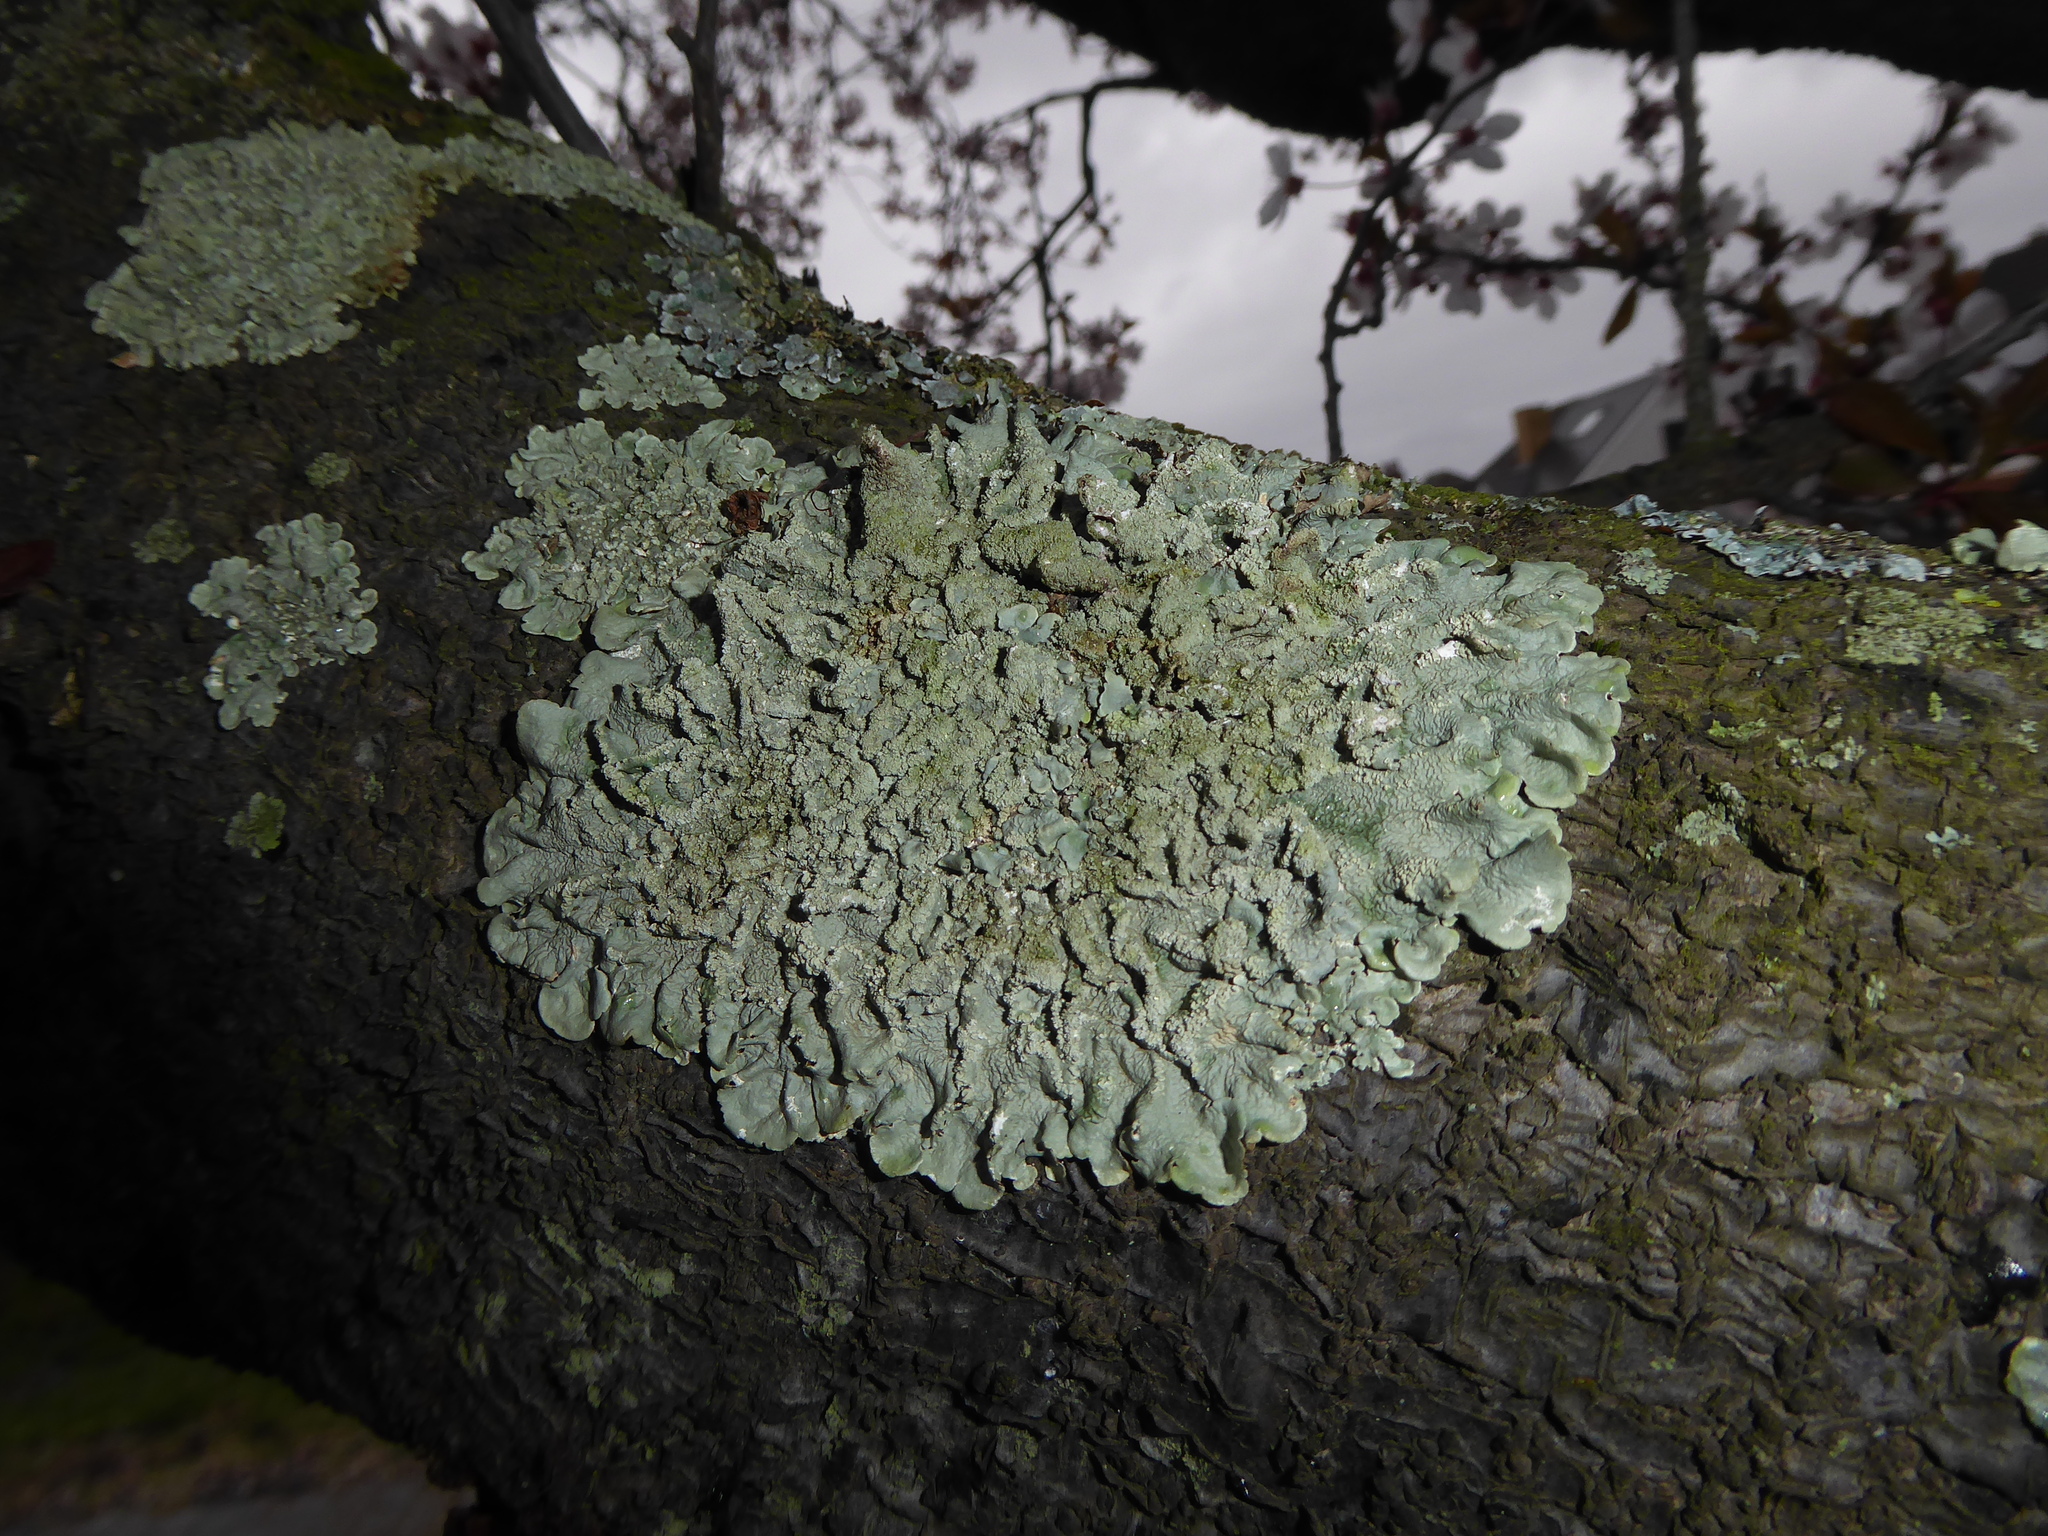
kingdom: Fungi
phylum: Ascomycota
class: Lecanoromycetes
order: Lecanorales
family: Parmeliaceae
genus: Flavoparmelia
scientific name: Flavoparmelia caperata
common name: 40-mile per hour lichen
